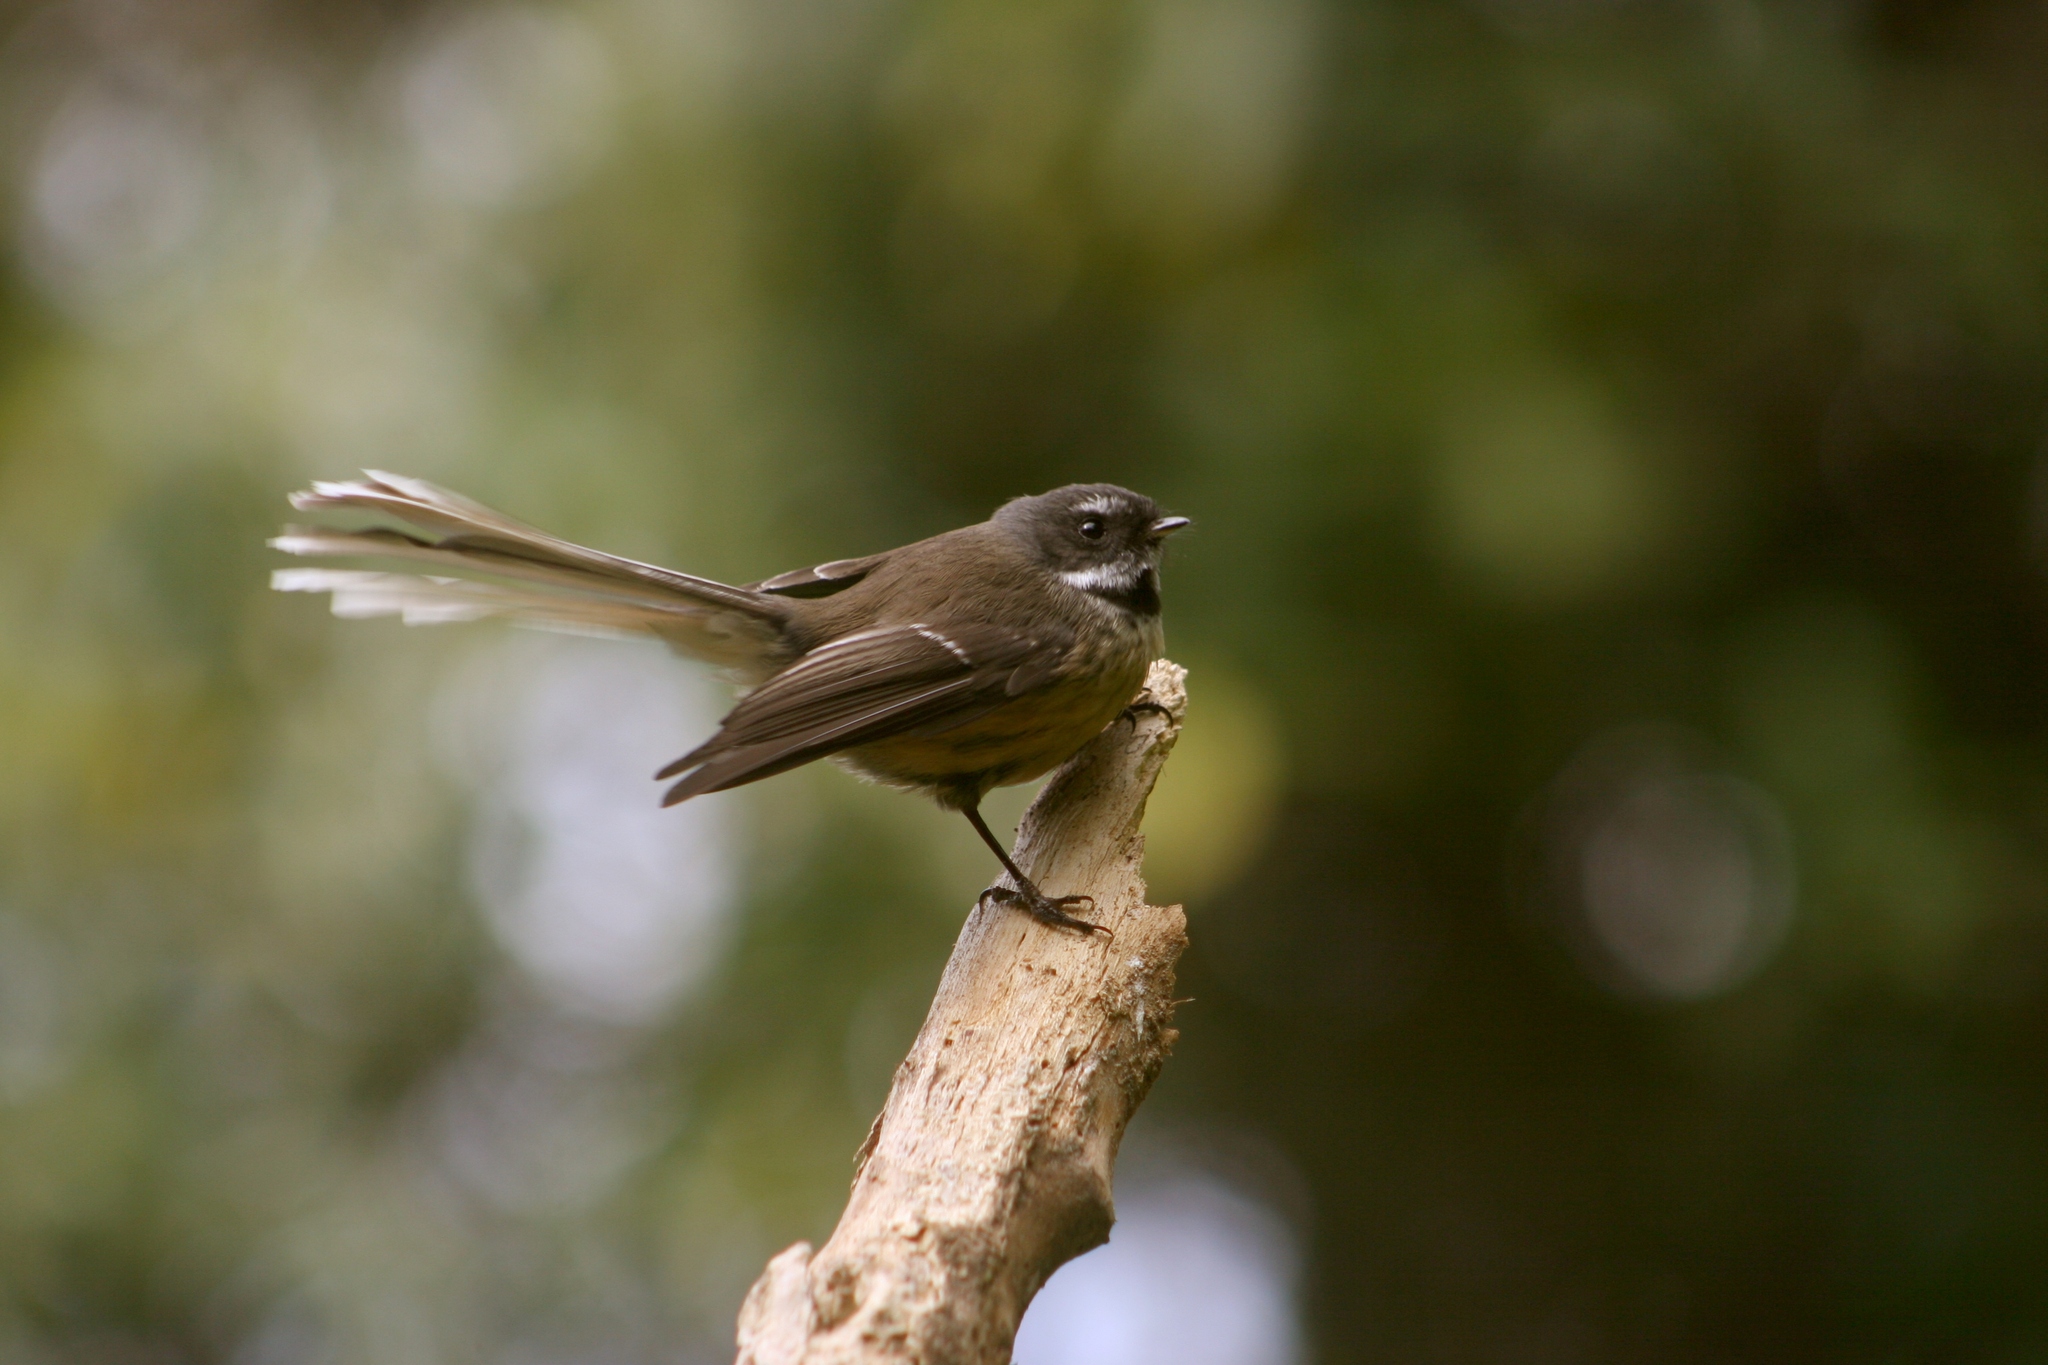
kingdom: Animalia
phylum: Chordata
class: Aves
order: Passeriformes
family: Rhipiduridae
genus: Rhipidura
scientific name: Rhipidura fuliginosa
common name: New zealand fantail
